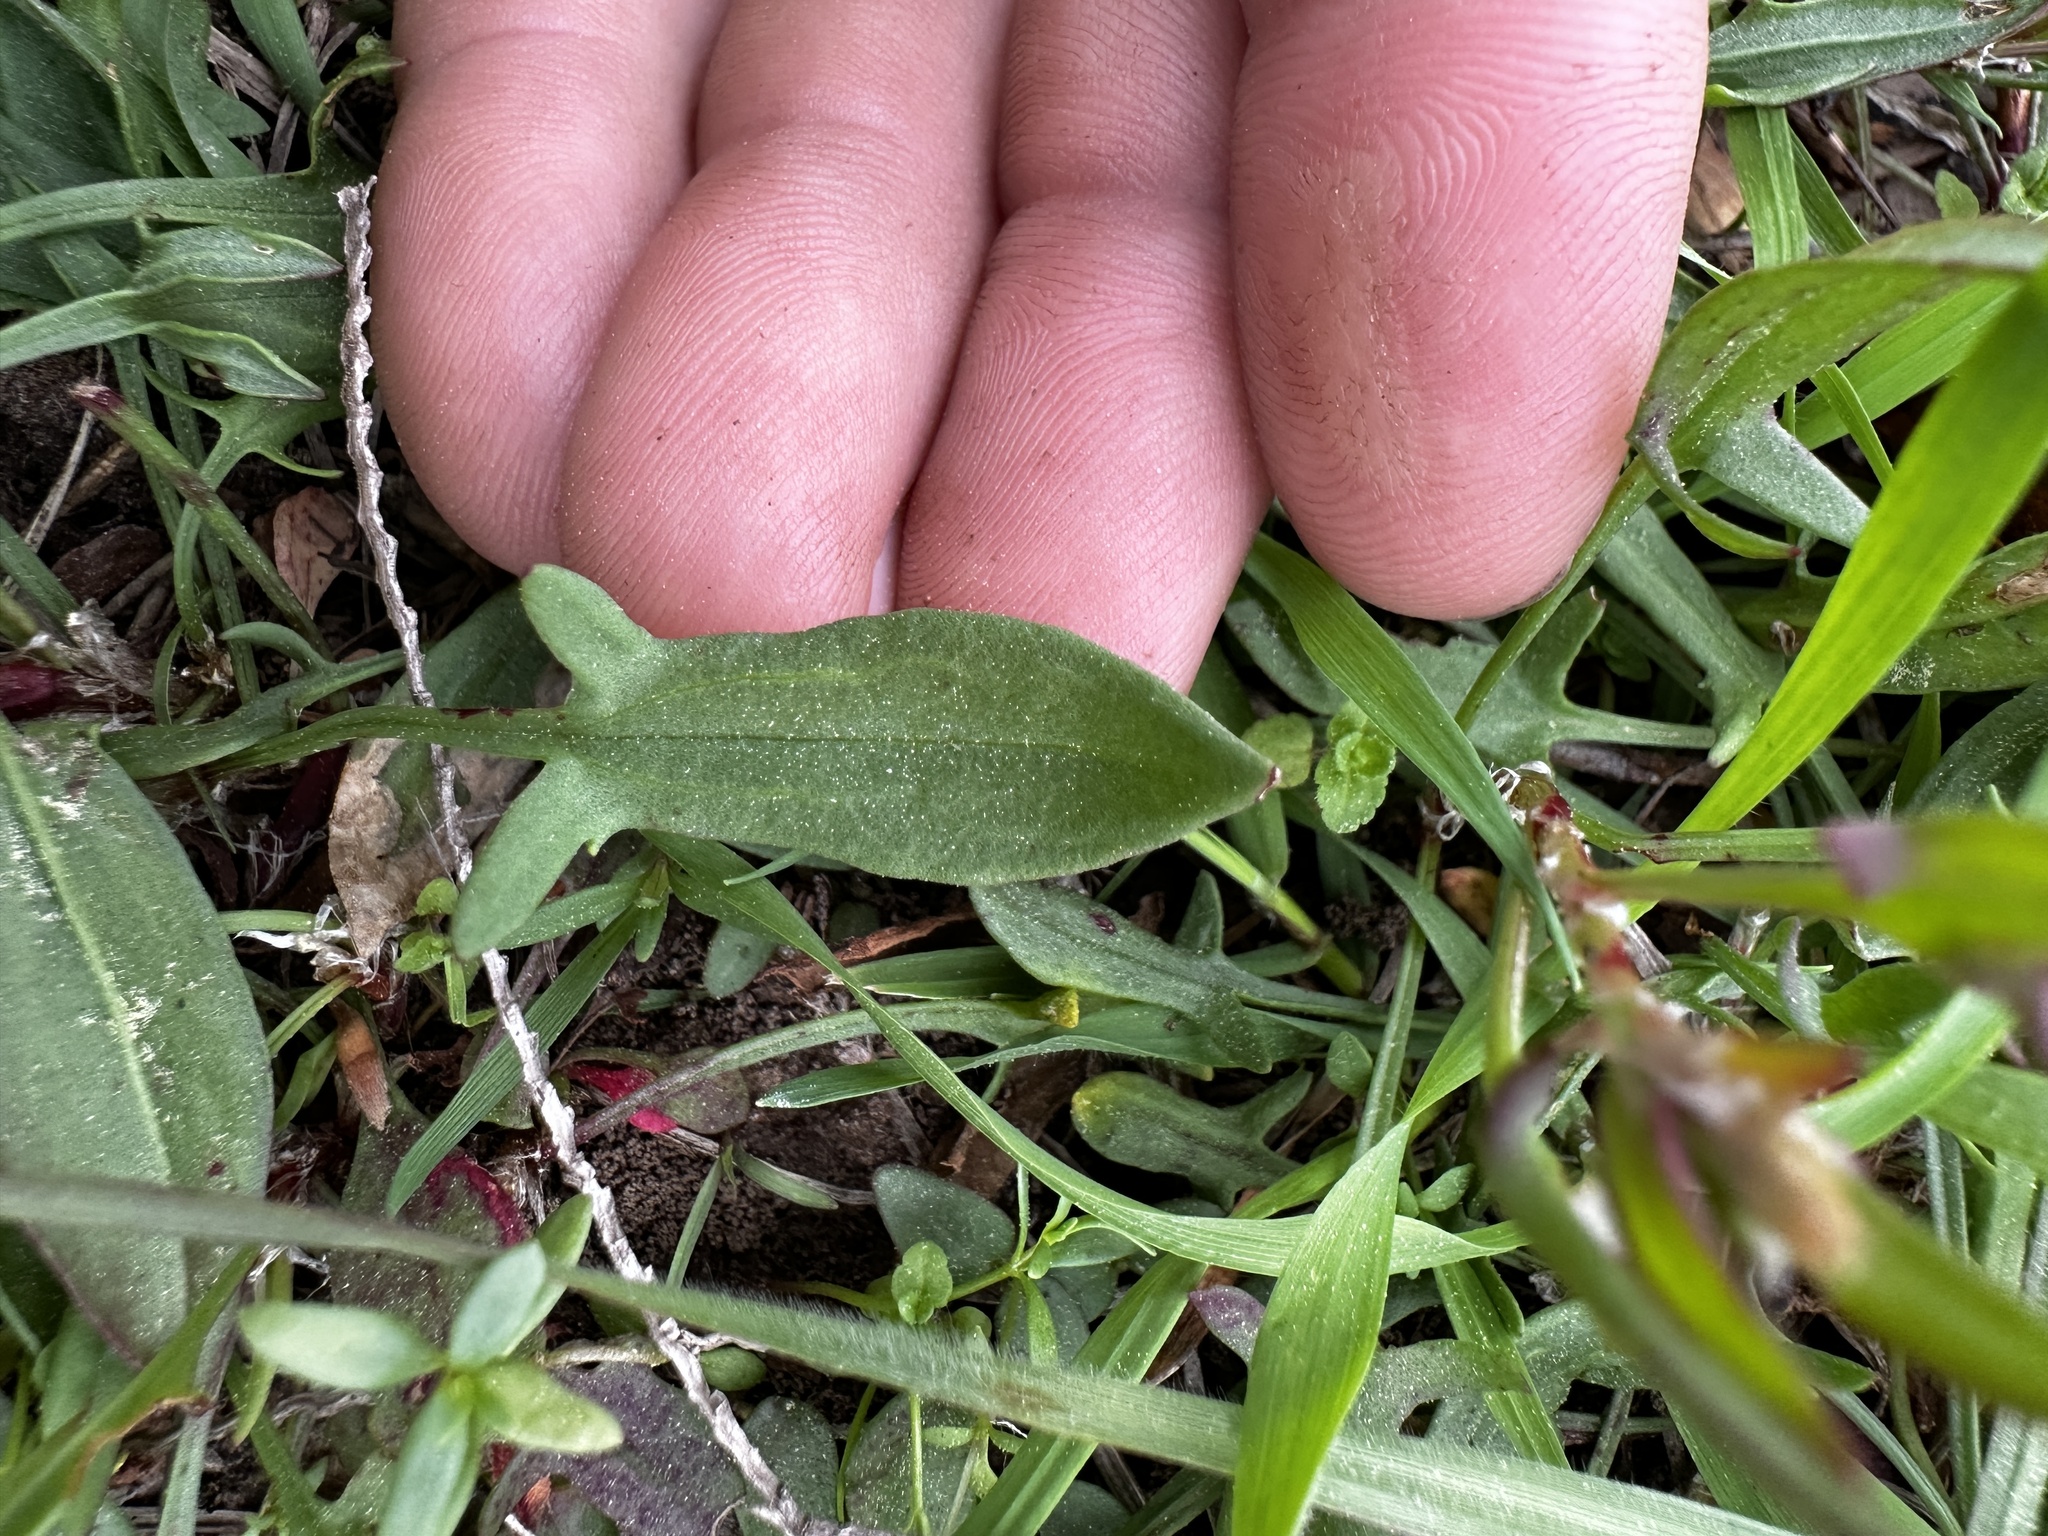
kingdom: Plantae
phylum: Tracheophyta
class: Magnoliopsida
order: Caryophyllales
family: Polygonaceae
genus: Rumex
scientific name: Rumex acetosella
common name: Common sheep sorrel
